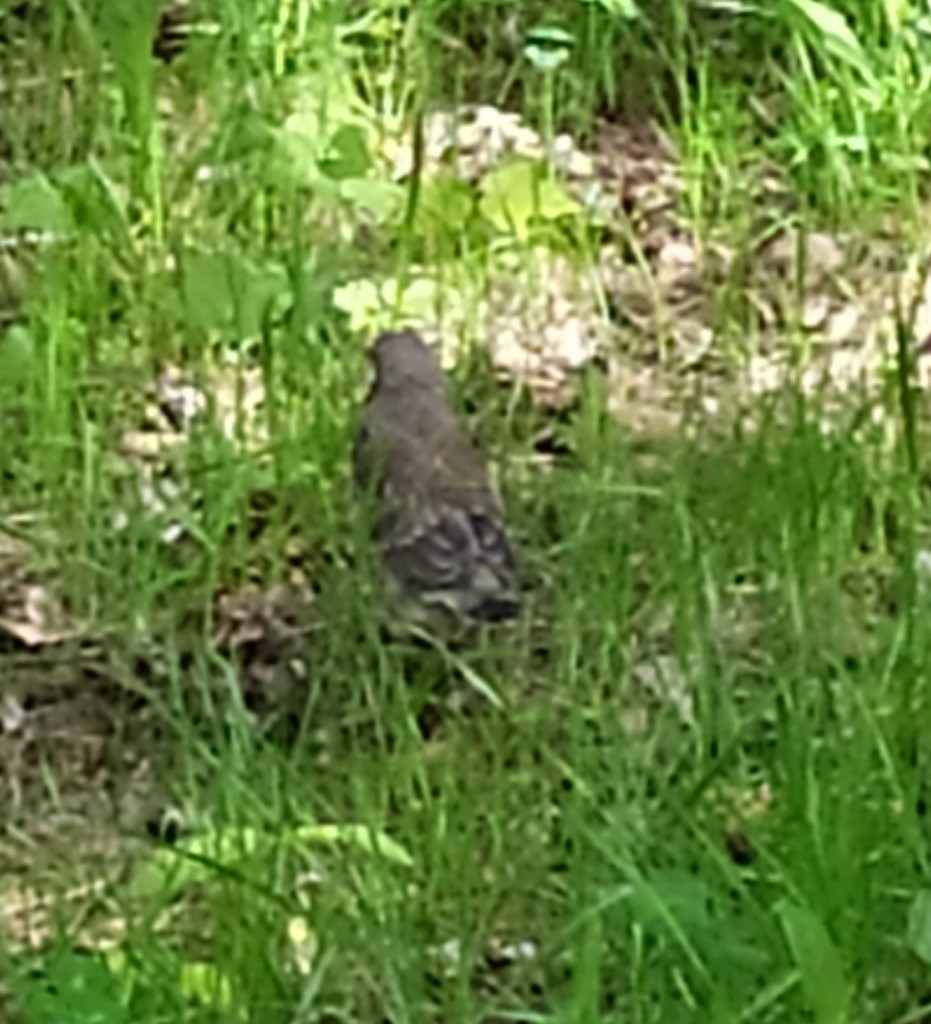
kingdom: Animalia
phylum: Chordata
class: Aves
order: Passeriformes
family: Turdidae
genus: Turdus
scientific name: Turdus pilaris
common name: Fieldfare
